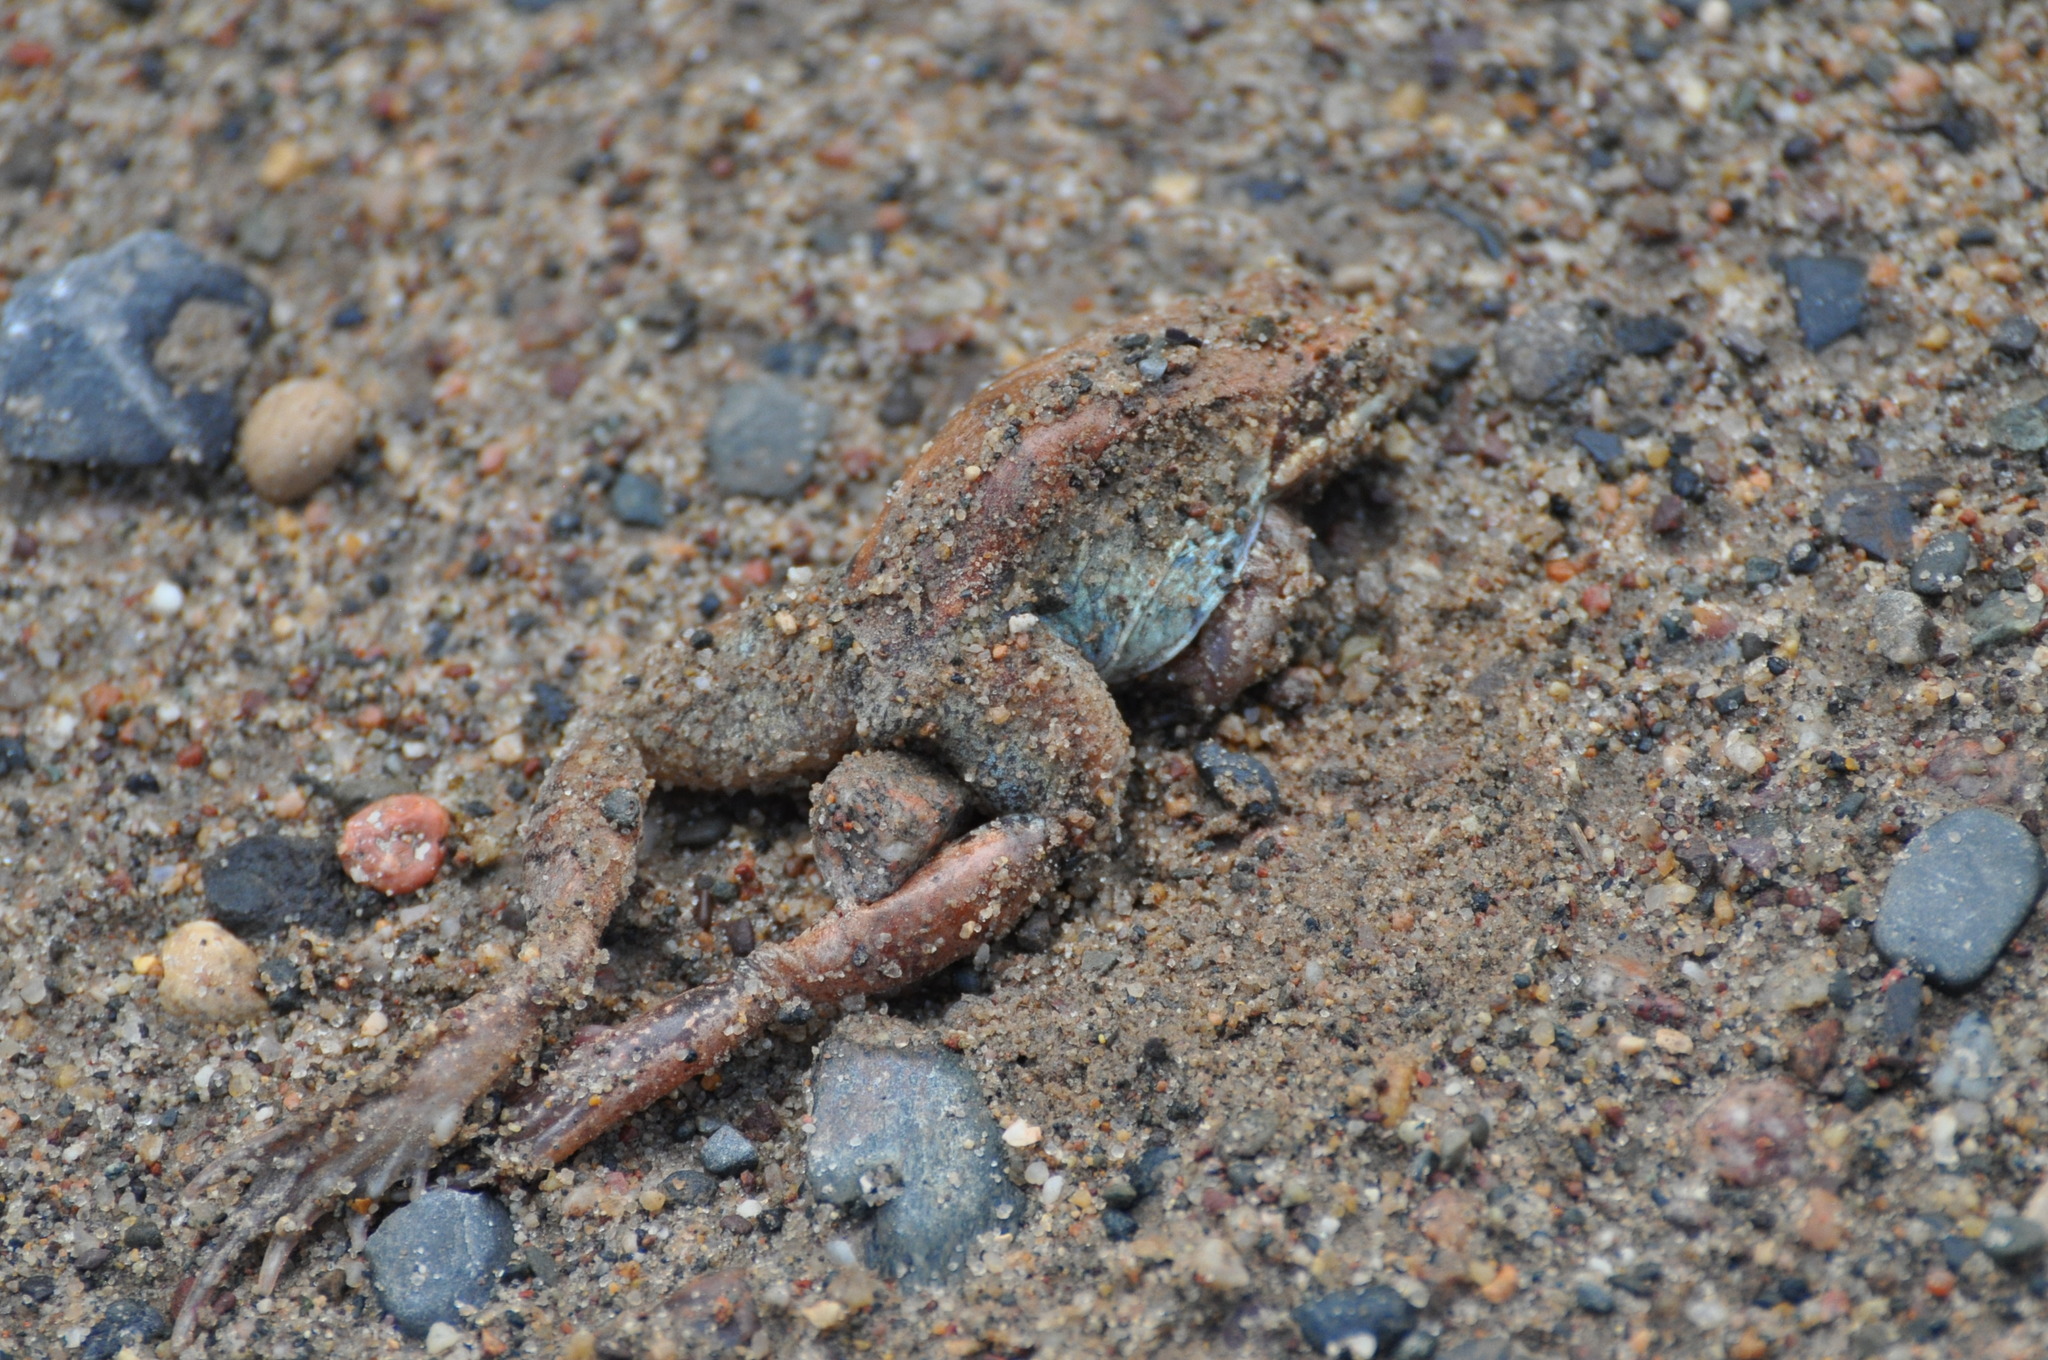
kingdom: Animalia
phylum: Chordata
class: Amphibia
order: Anura
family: Ranidae
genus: Lithobates
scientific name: Lithobates sylvaticus
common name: Wood frog
